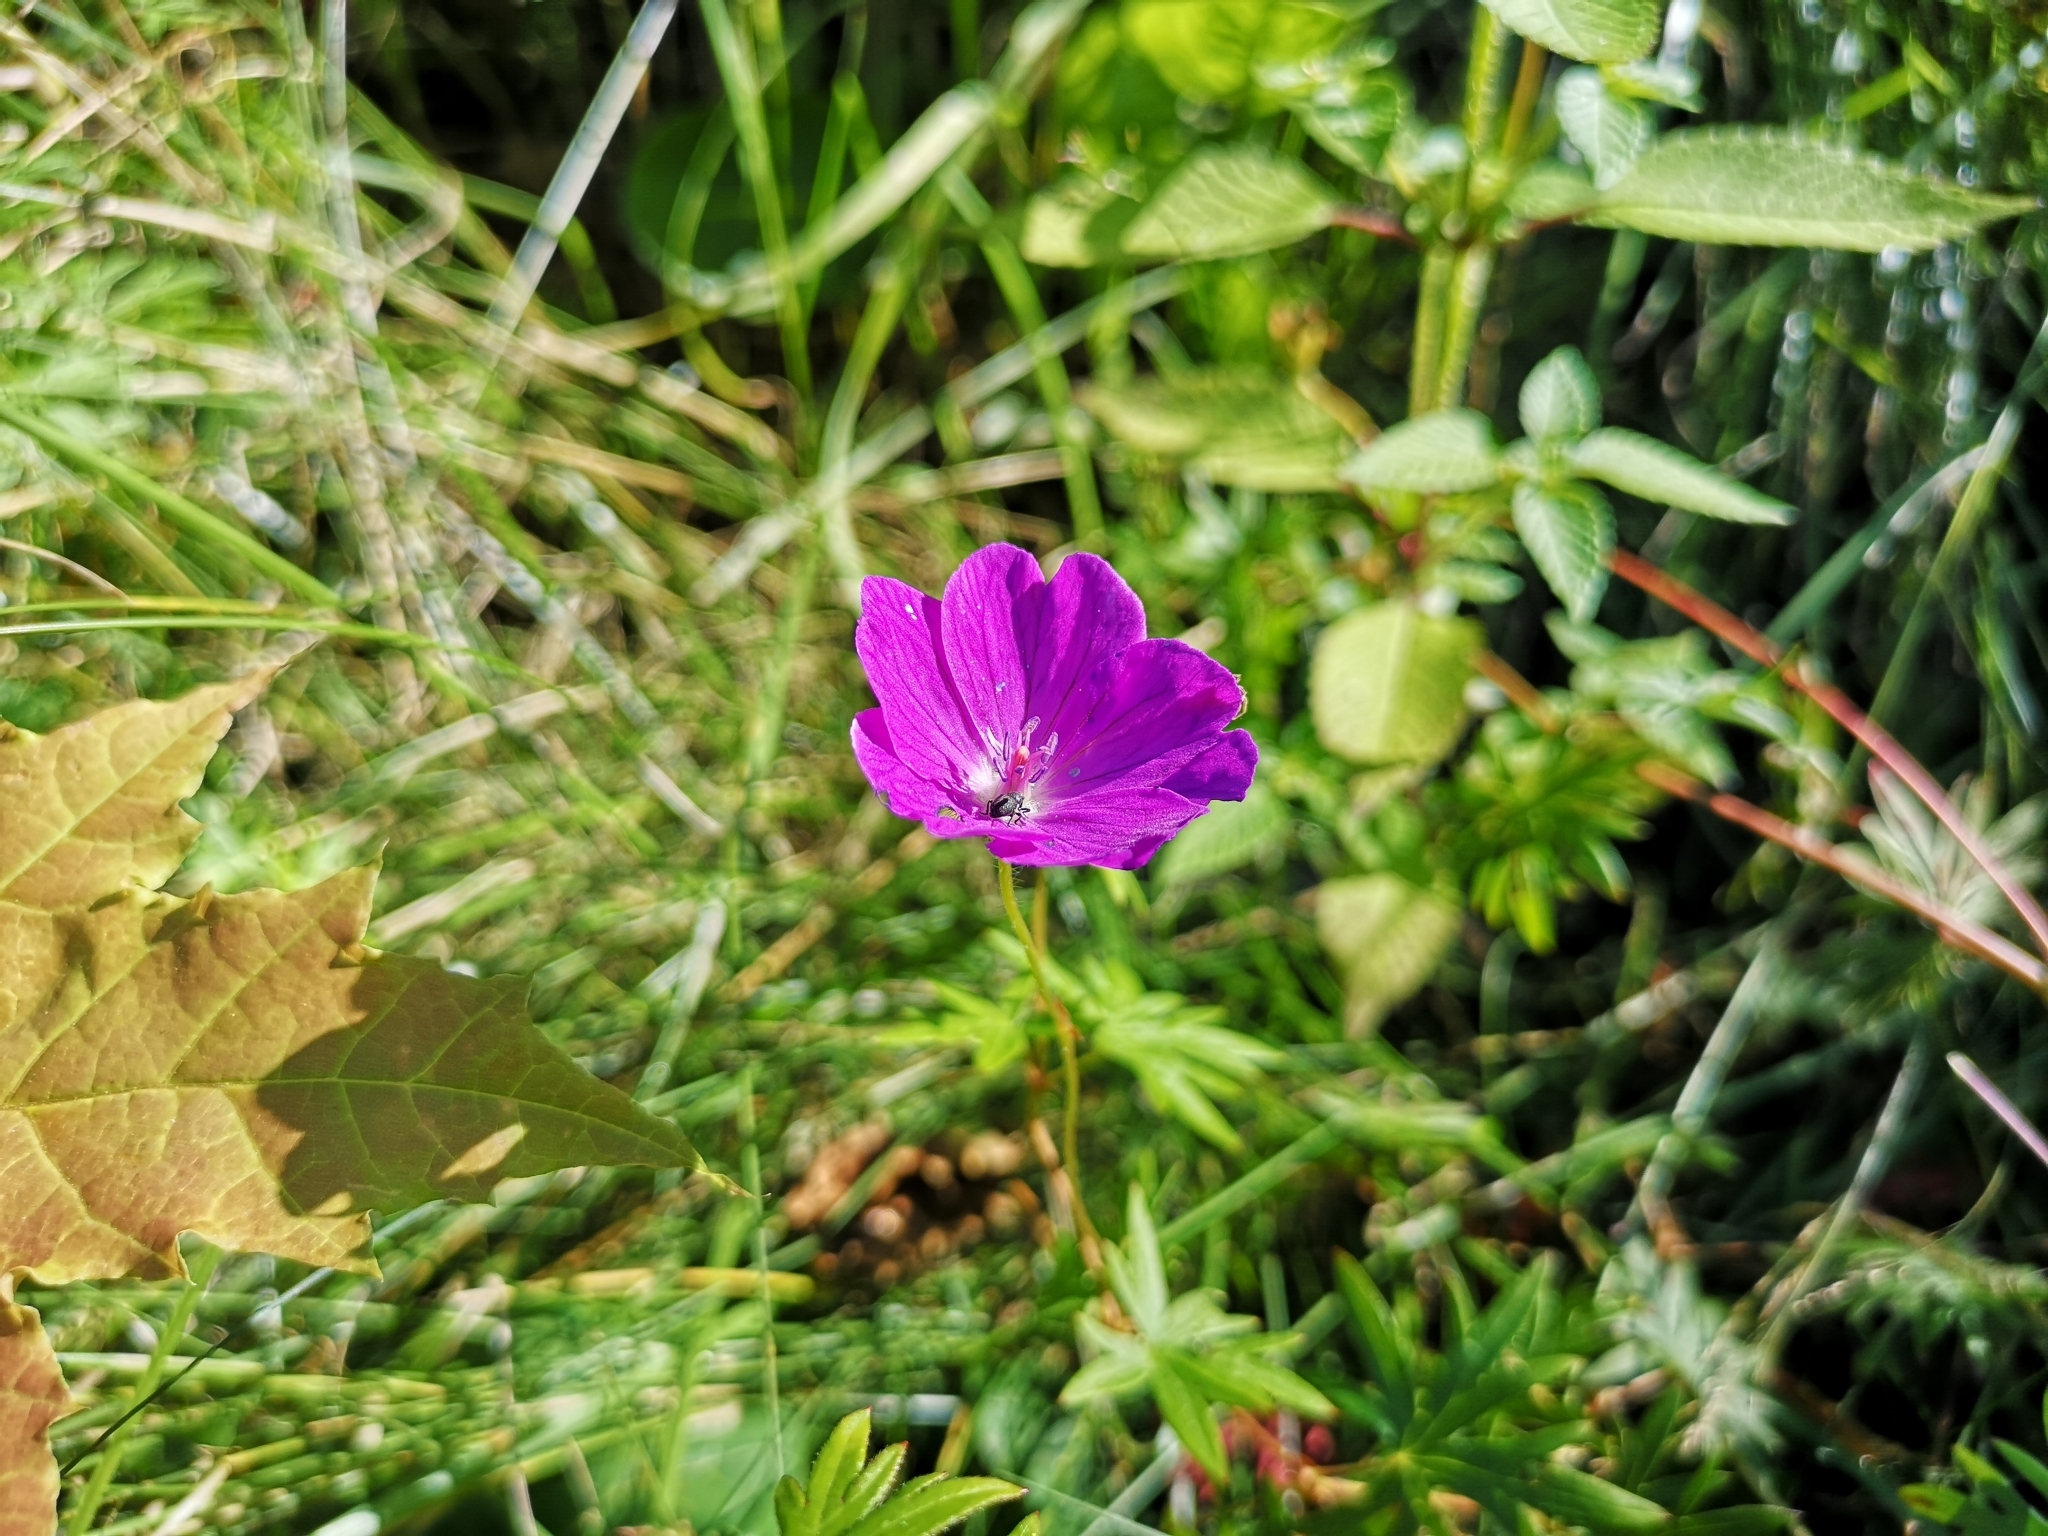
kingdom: Plantae
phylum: Tracheophyta
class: Magnoliopsida
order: Geraniales
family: Geraniaceae
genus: Geranium
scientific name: Geranium sanguineum
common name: Bloody crane's-bill
